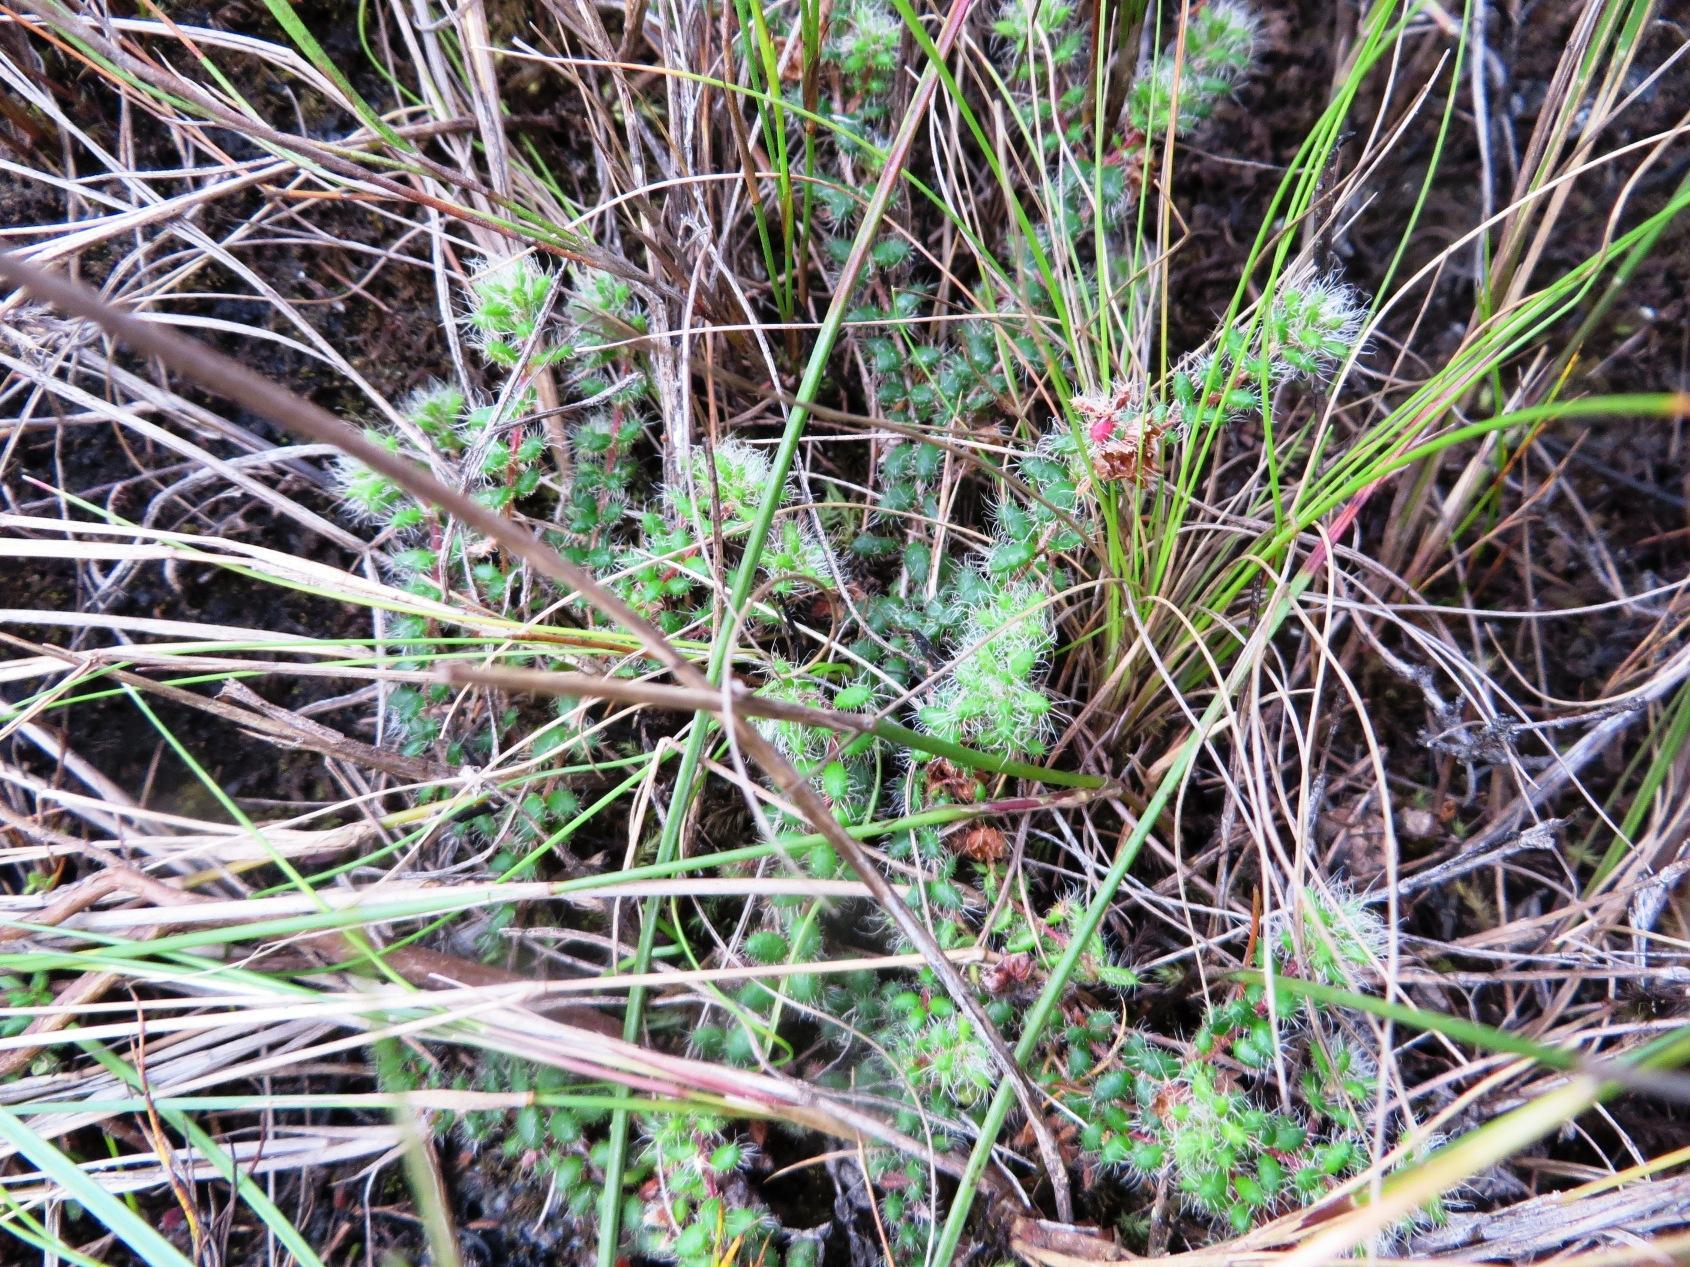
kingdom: Plantae
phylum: Tracheophyta
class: Magnoliopsida
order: Ericales
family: Ericaceae
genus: Erica
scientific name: Erica physophylla
